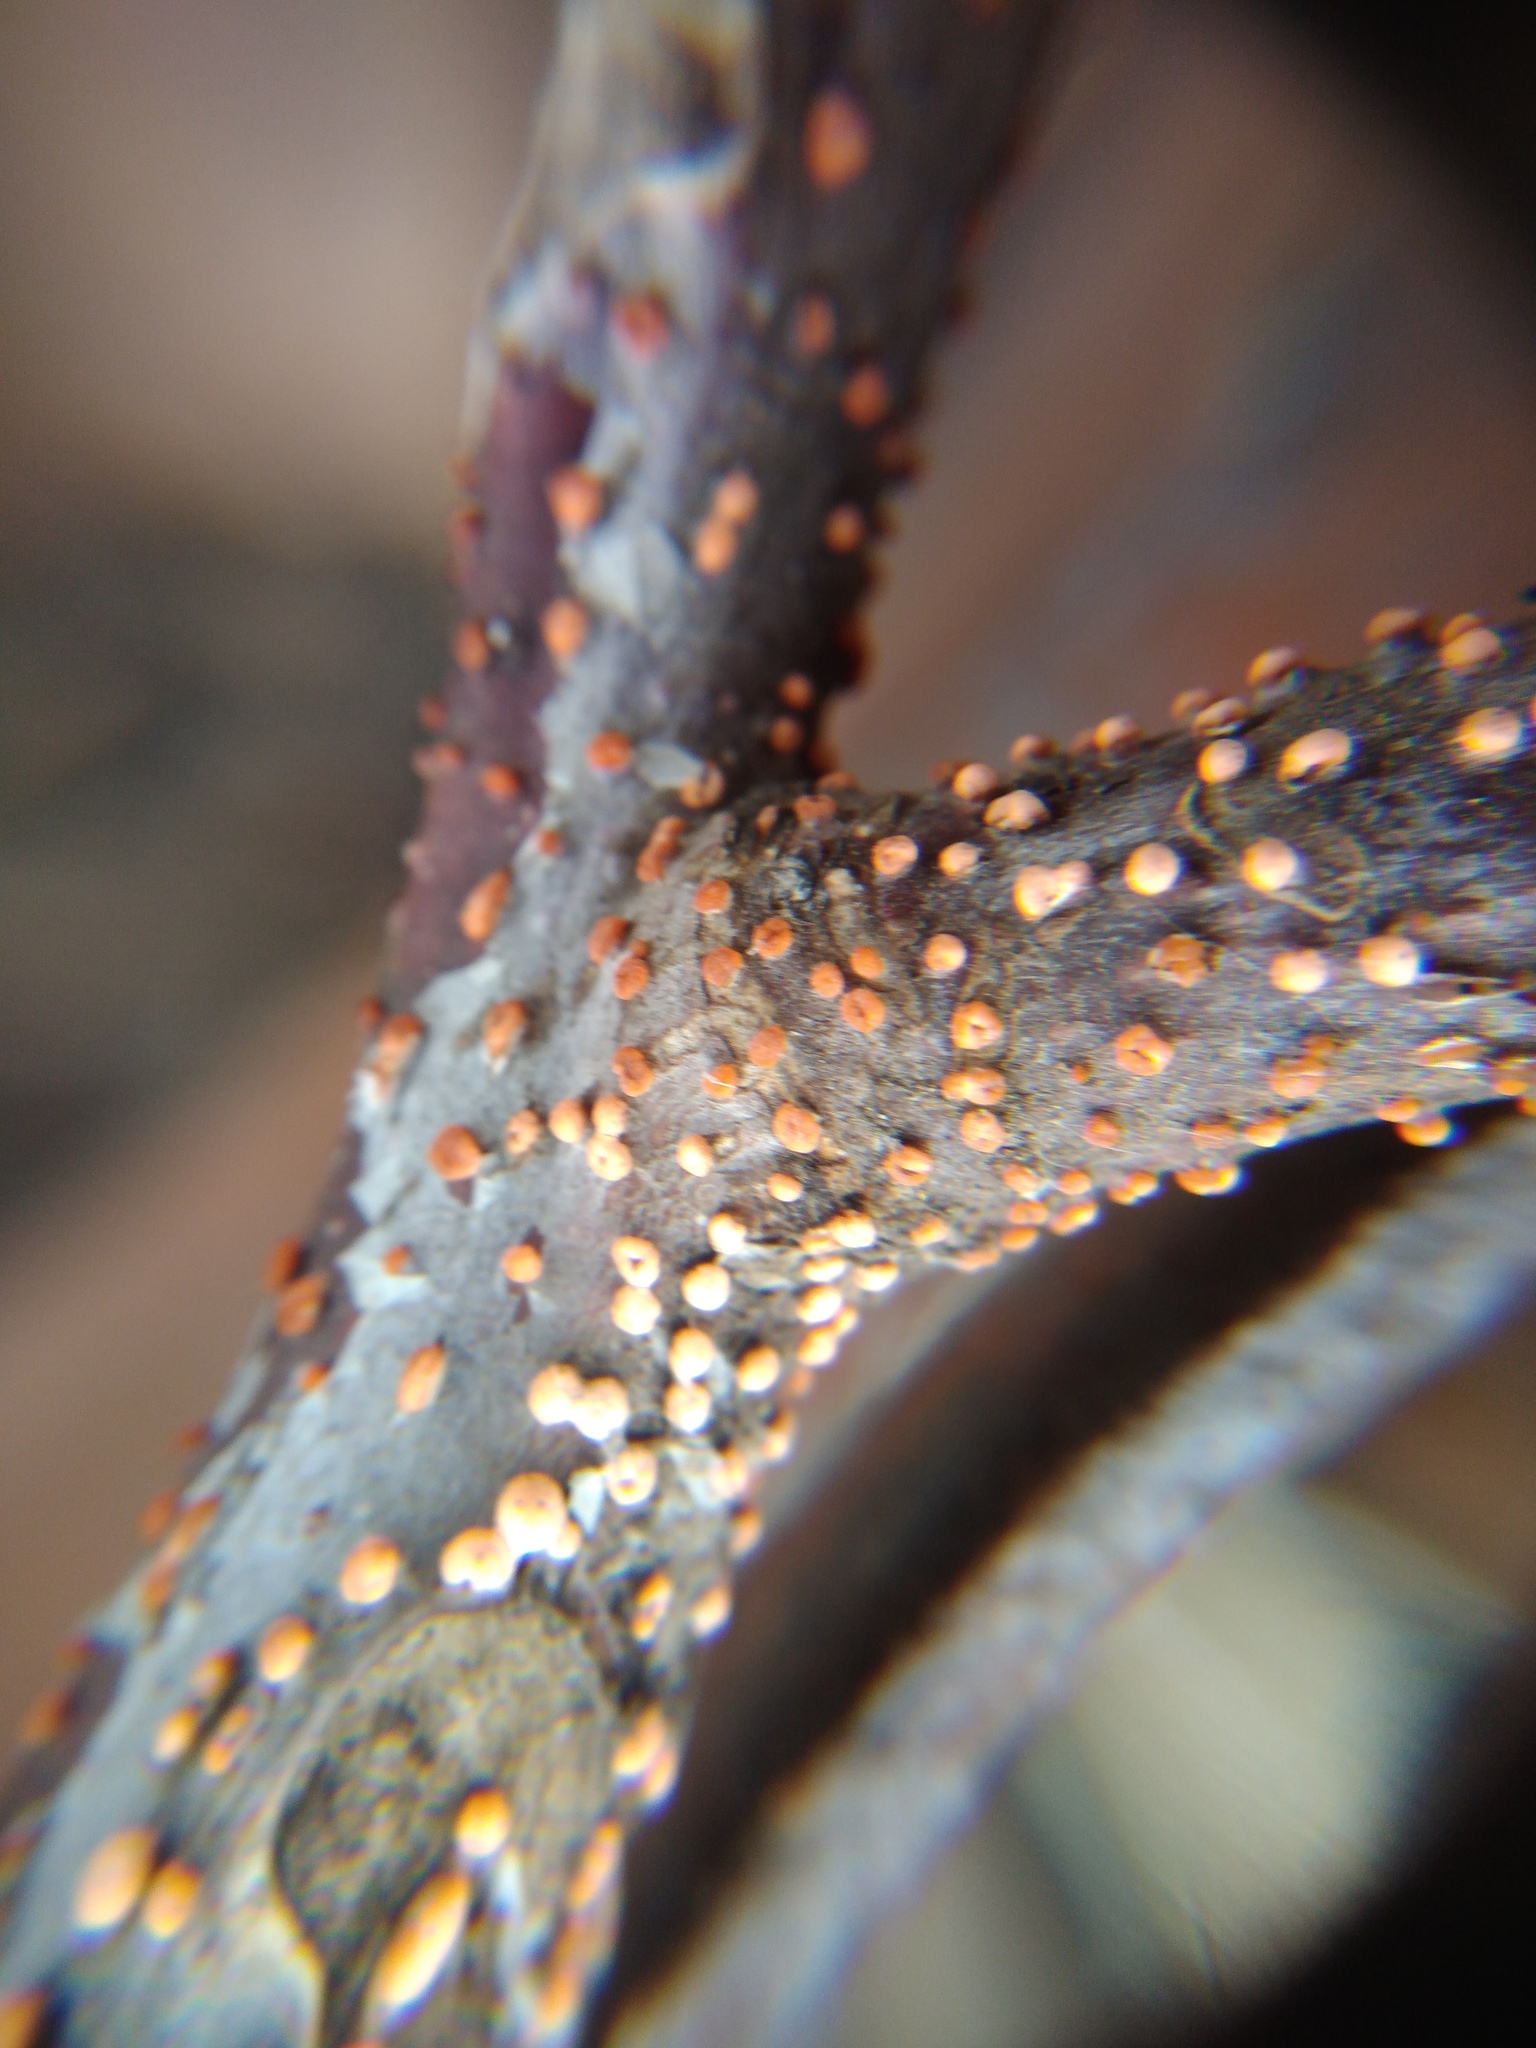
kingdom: Fungi
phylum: Ascomycota
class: Sordariomycetes
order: Hypocreales
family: Nectriaceae
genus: Nectria
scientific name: Nectria cinnabarina
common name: Coral spot
